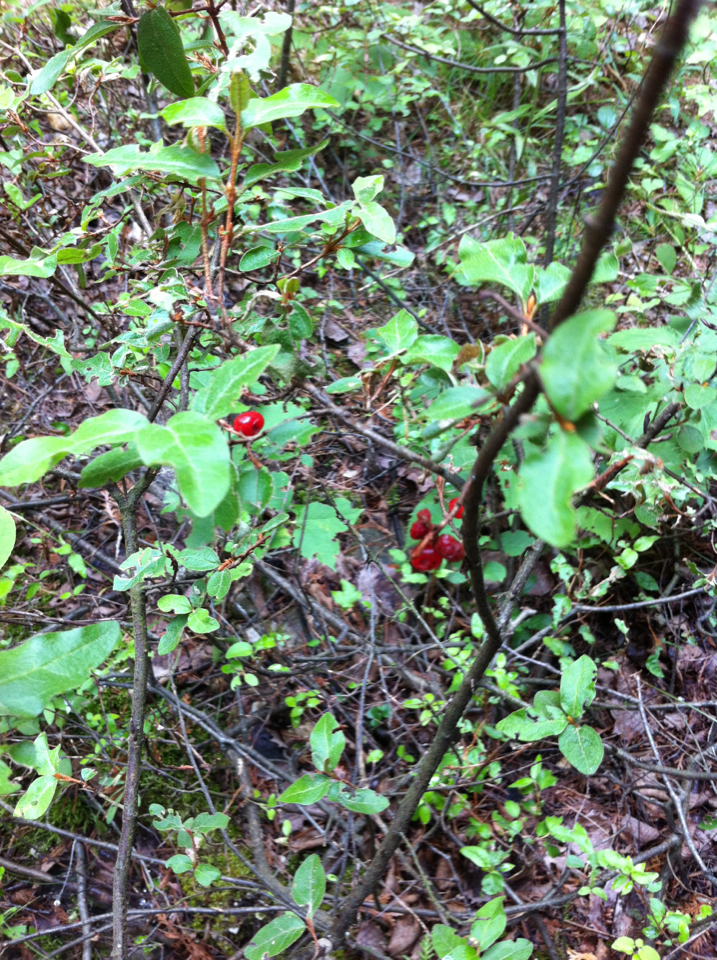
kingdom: Plantae
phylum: Tracheophyta
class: Magnoliopsida
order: Rosales
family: Elaeagnaceae
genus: Shepherdia
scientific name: Shepherdia canadensis
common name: Soapberry
